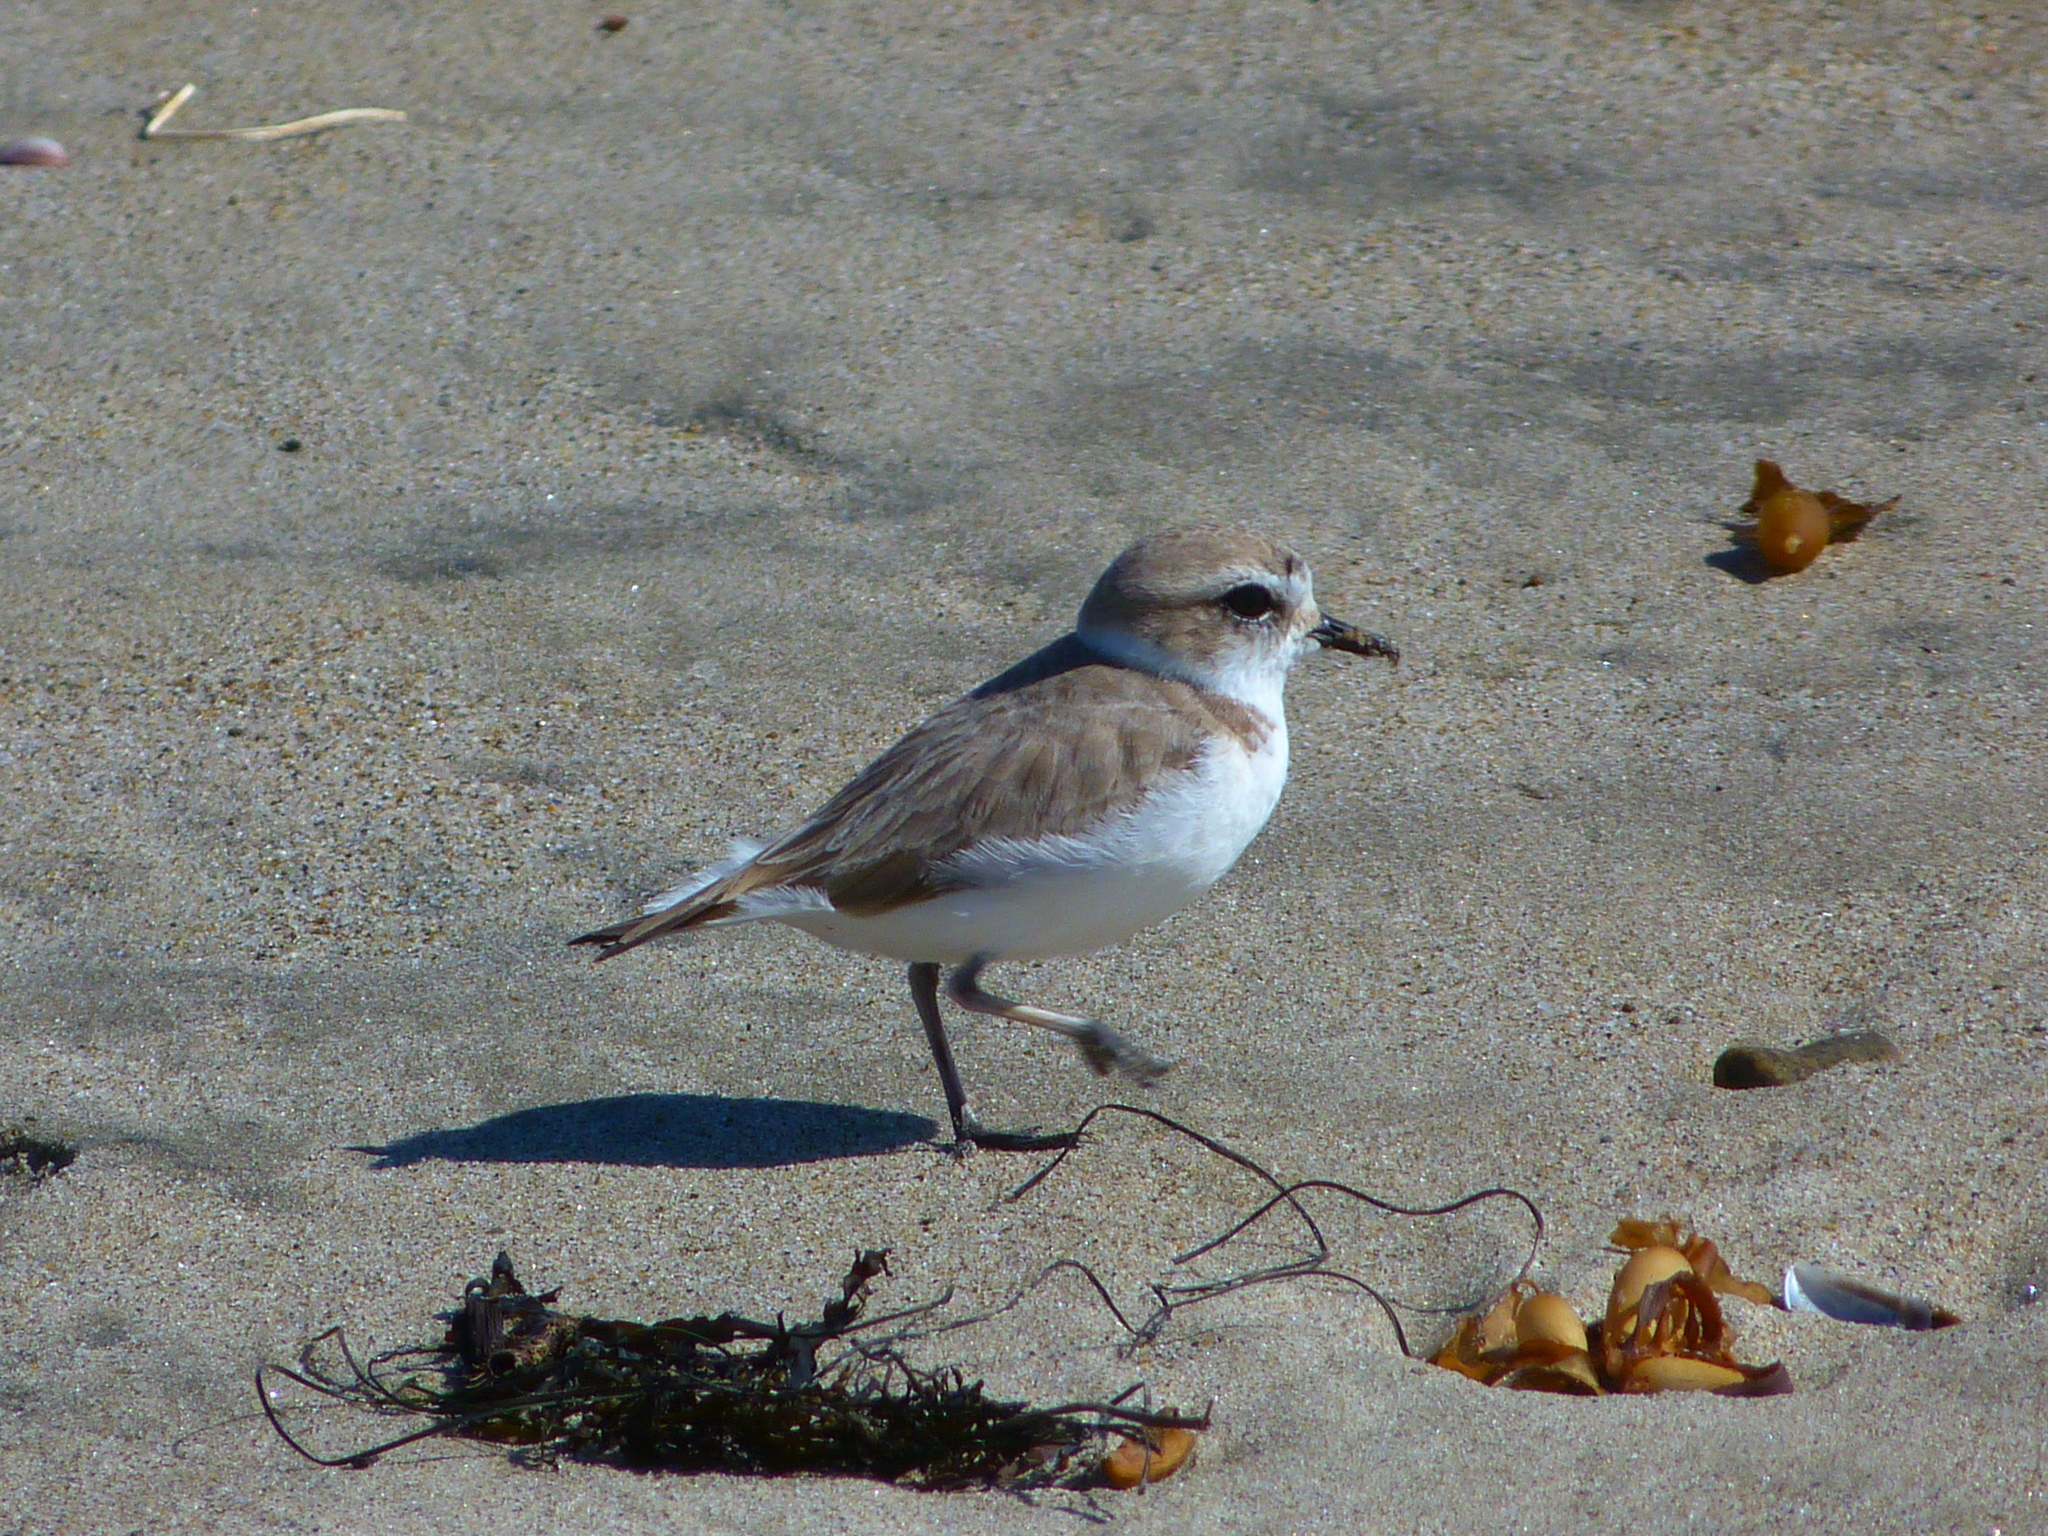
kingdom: Animalia
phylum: Chordata
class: Aves
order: Charadriiformes
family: Charadriidae
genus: Anarhynchus
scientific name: Anarhynchus
